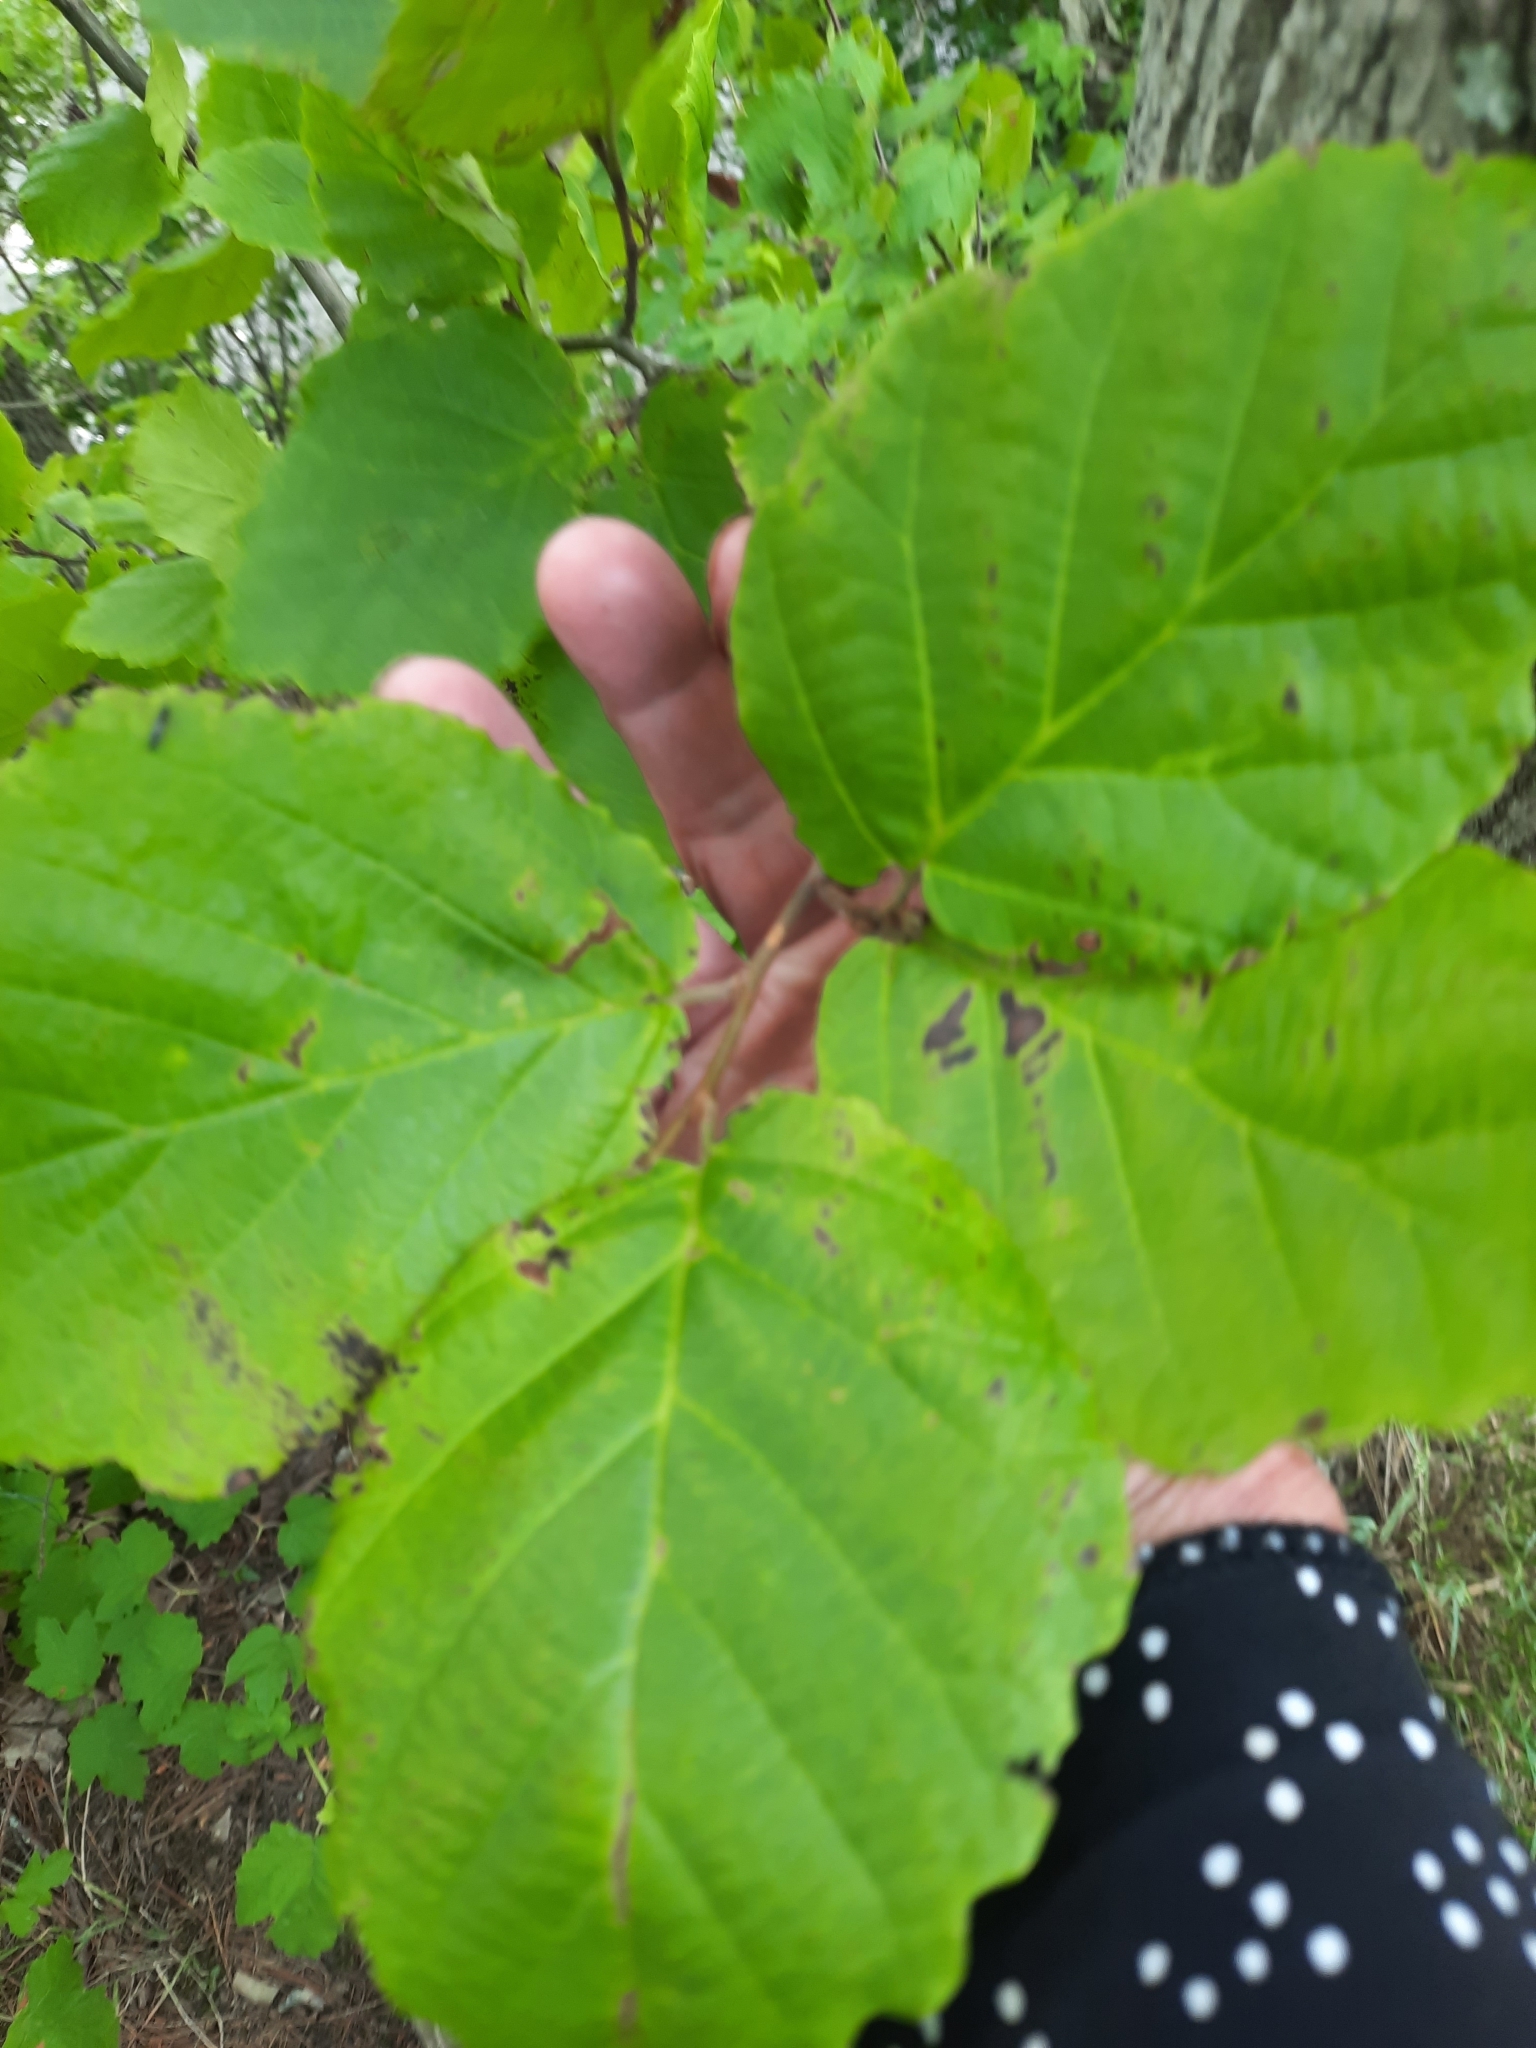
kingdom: Plantae
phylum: Tracheophyta
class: Magnoliopsida
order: Saxifragales
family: Hamamelidaceae
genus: Hamamelis
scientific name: Hamamelis virginiana
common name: Witch-hazel
